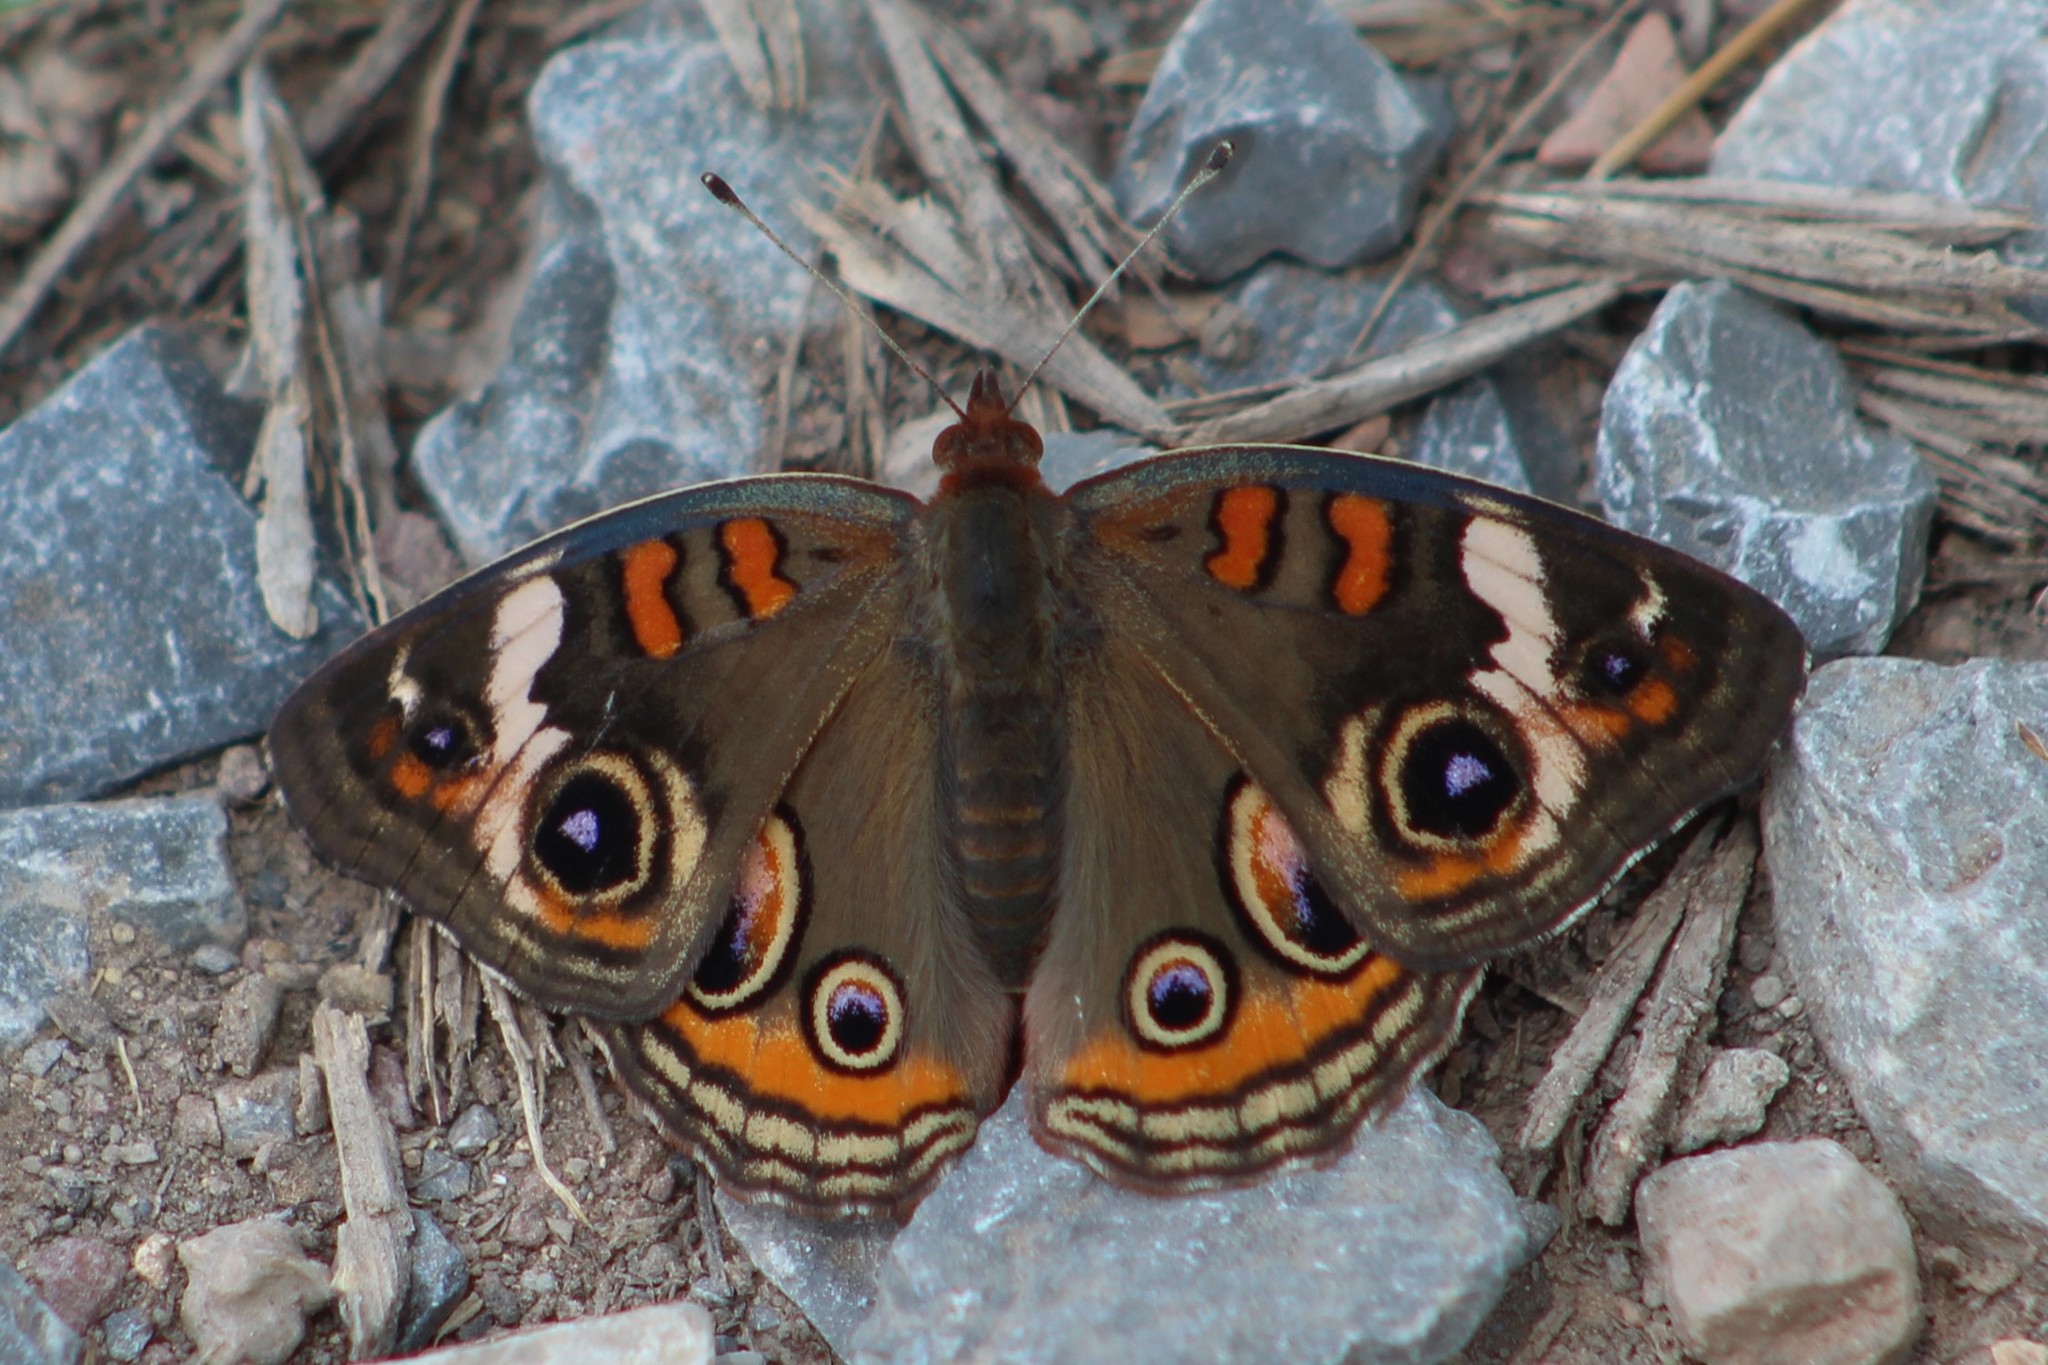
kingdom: Animalia
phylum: Arthropoda
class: Insecta
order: Lepidoptera
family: Nymphalidae
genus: Junonia
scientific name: Junonia coenia
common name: Common buckeye
